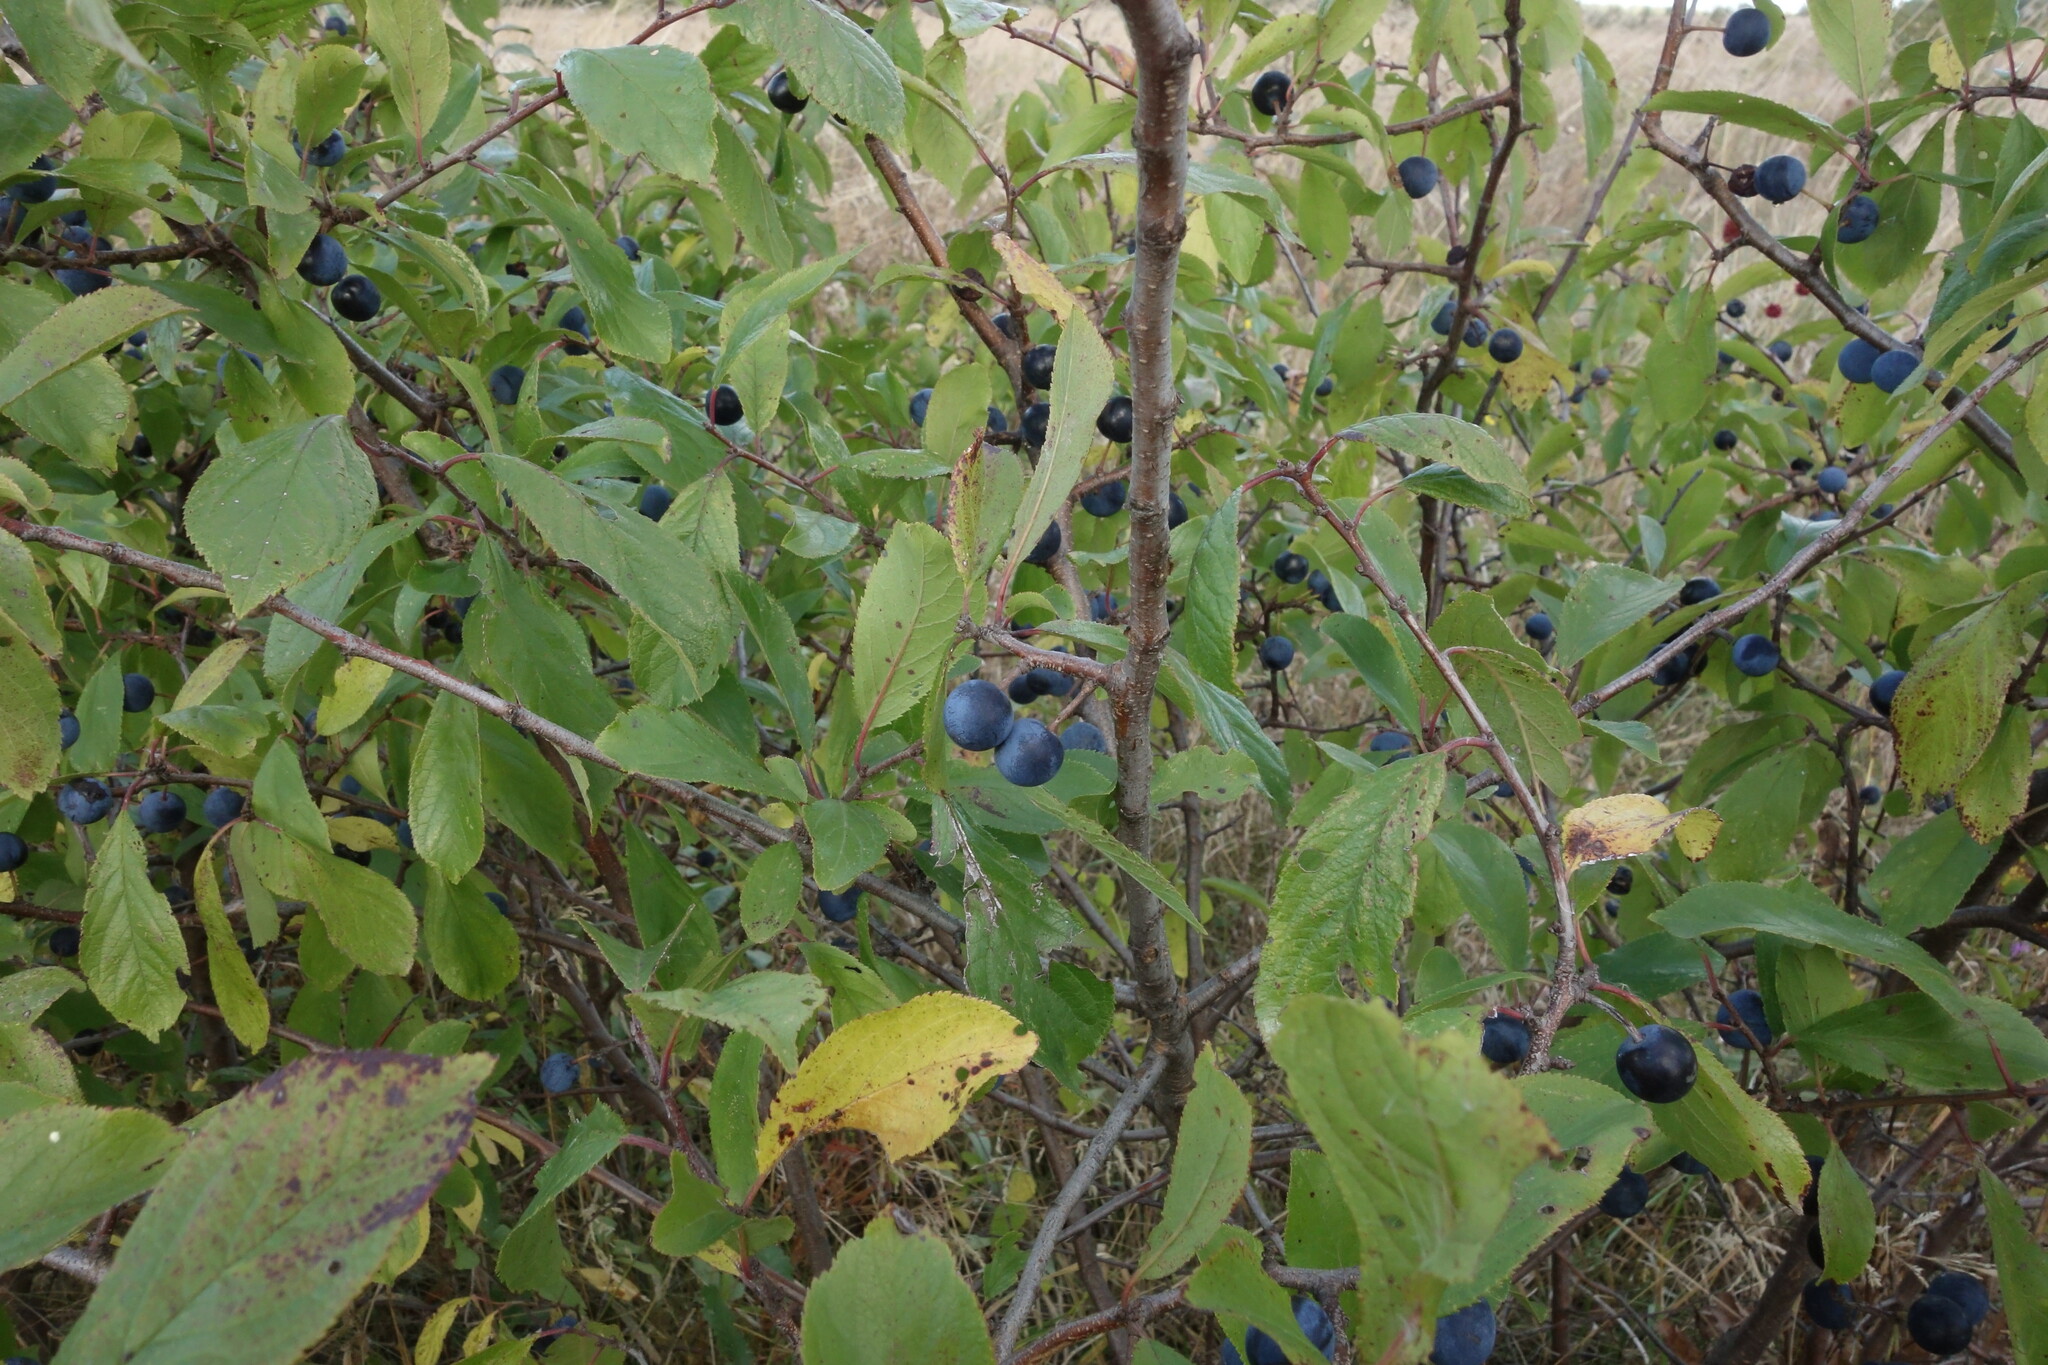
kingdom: Plantae
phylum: Tracheophyta
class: Magnoliopsida
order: Rosales
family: Rosaceae
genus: Prunus
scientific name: Prunus spinosa
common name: Blackthorn
